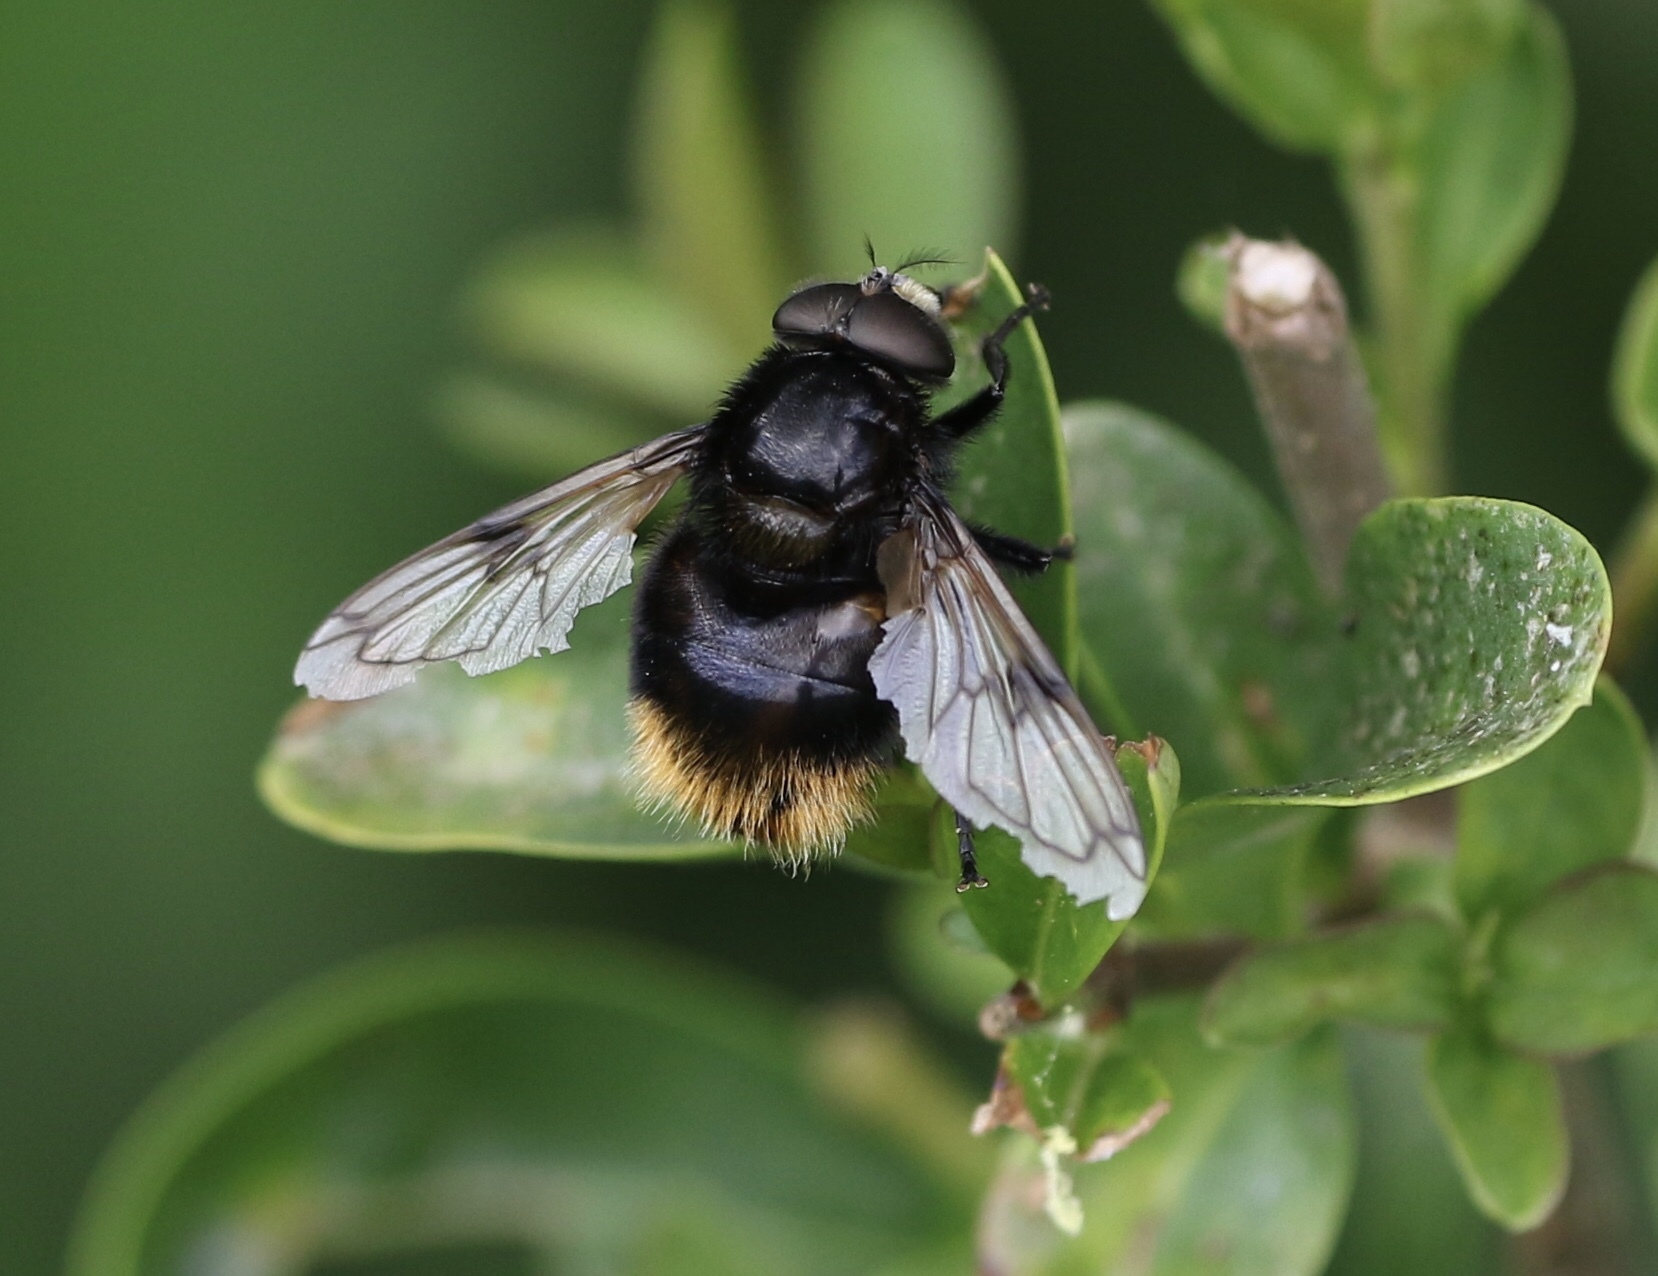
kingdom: Animalia
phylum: Arthropoda
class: Insecta
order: Diptera
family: Syrphidae
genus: Volucella
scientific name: Volucella bombylans
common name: Bumble bee hover fly
